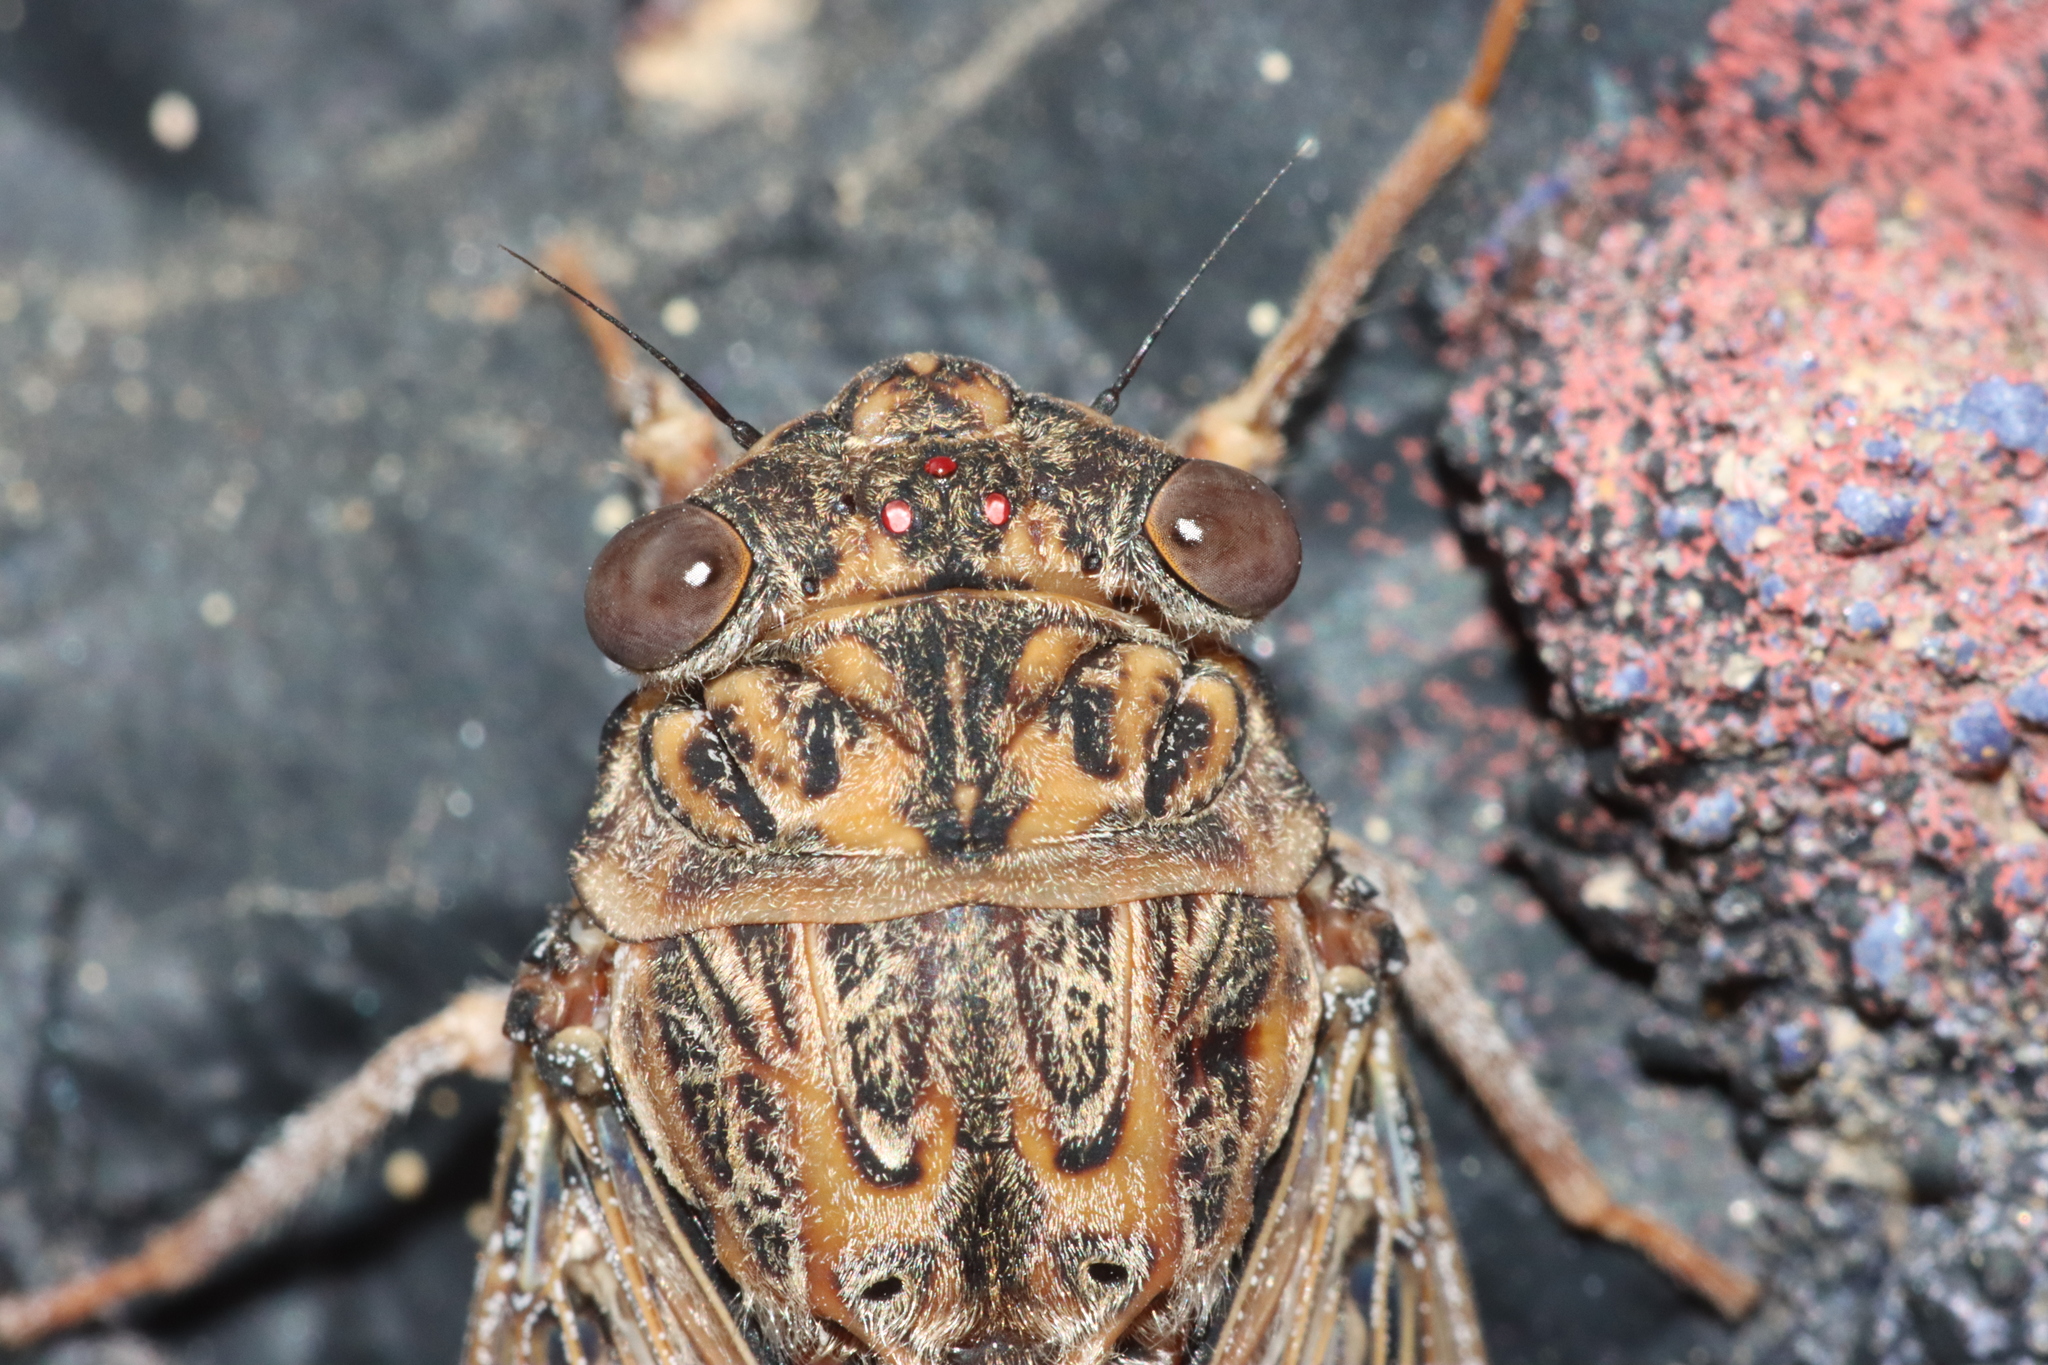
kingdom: Animalia
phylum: Arthropoda
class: Insecta
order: Hemiptera
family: Cicadidae
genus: Cicada
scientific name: Cicada barbara
